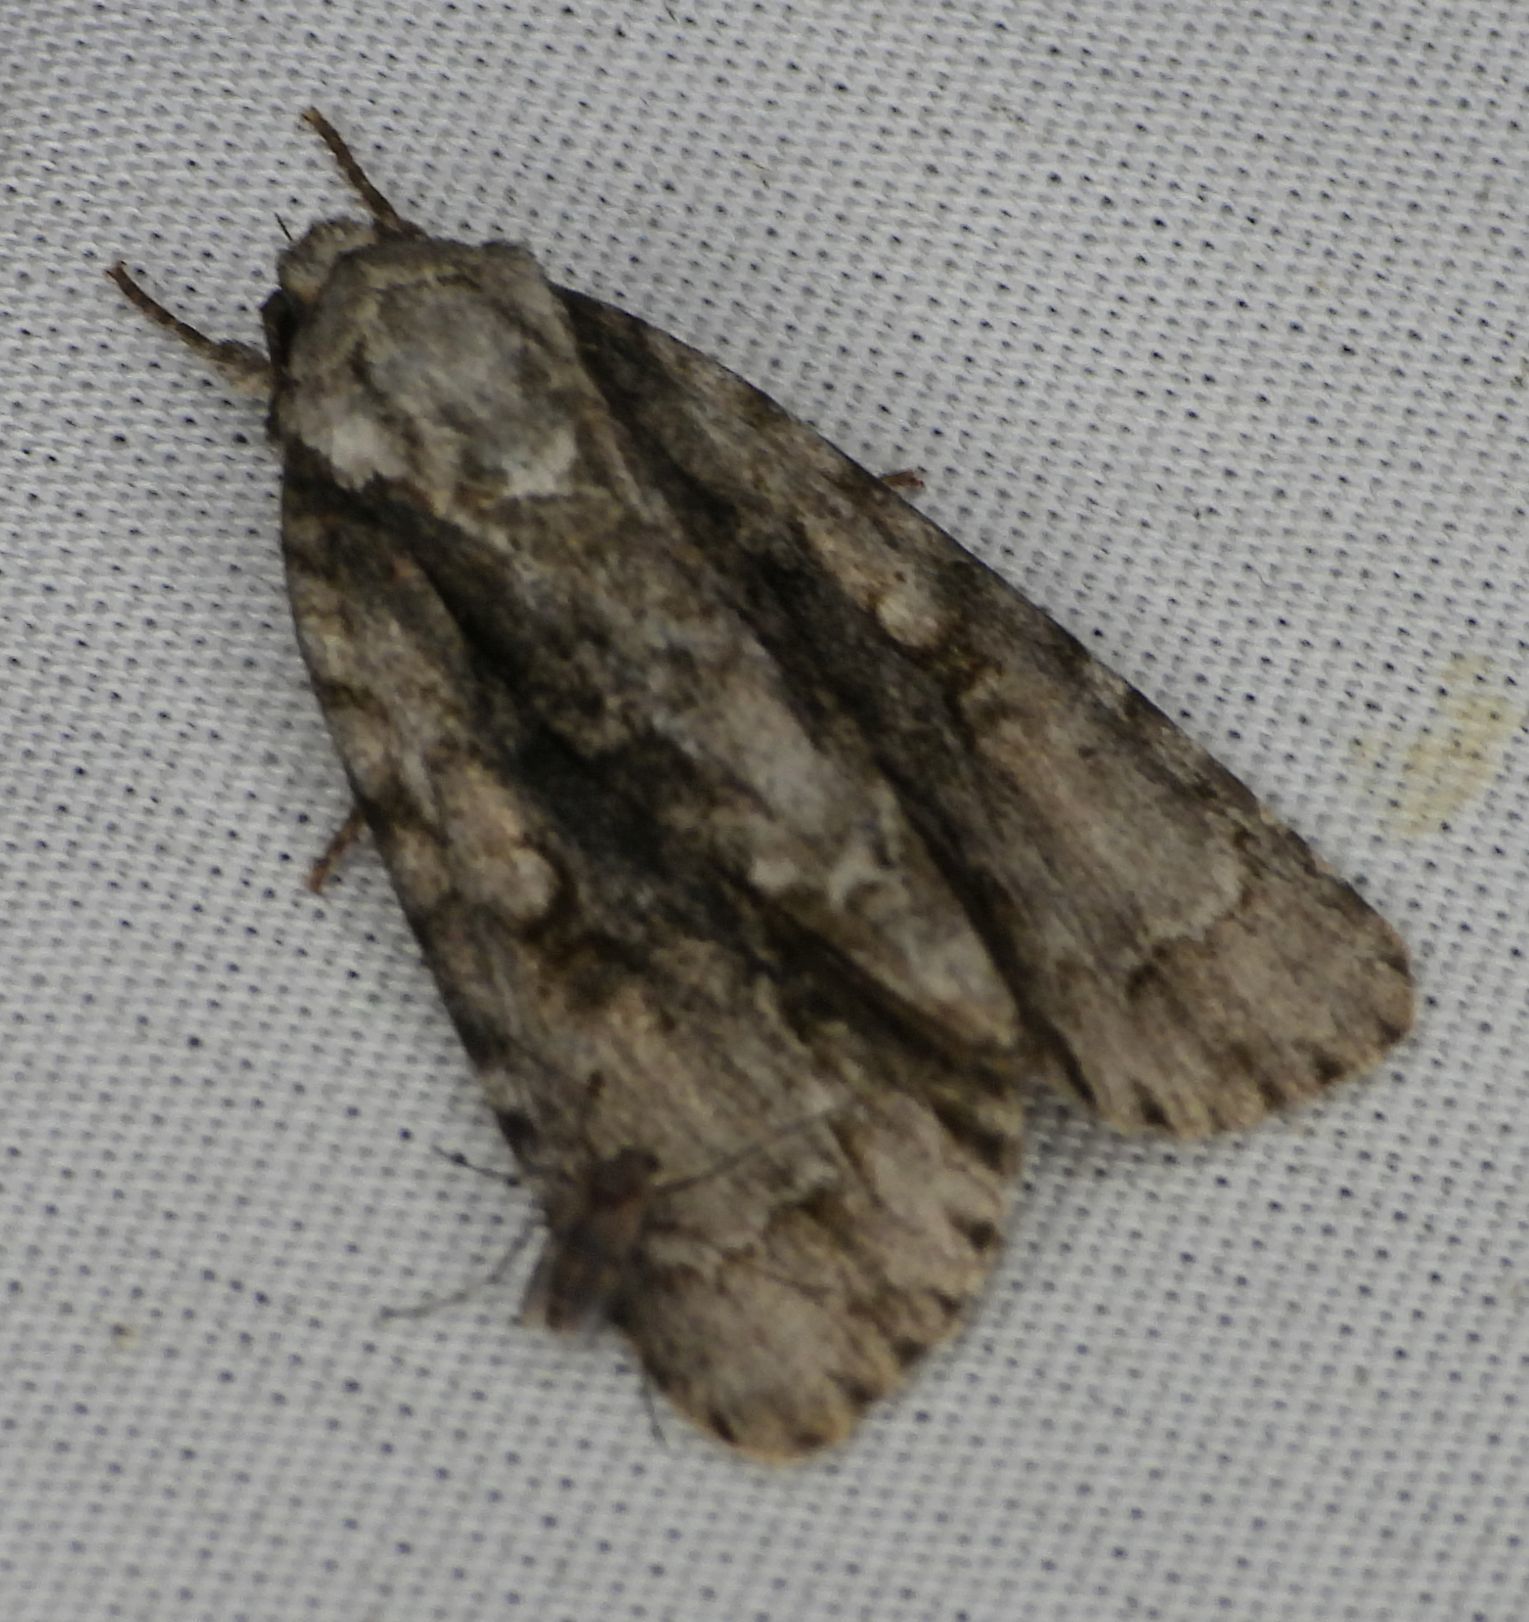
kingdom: Animalia
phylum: Arthropoda
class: Insecta
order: Lepidoptera
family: Noctuidae
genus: Acronicta
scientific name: Acronicta connecta
